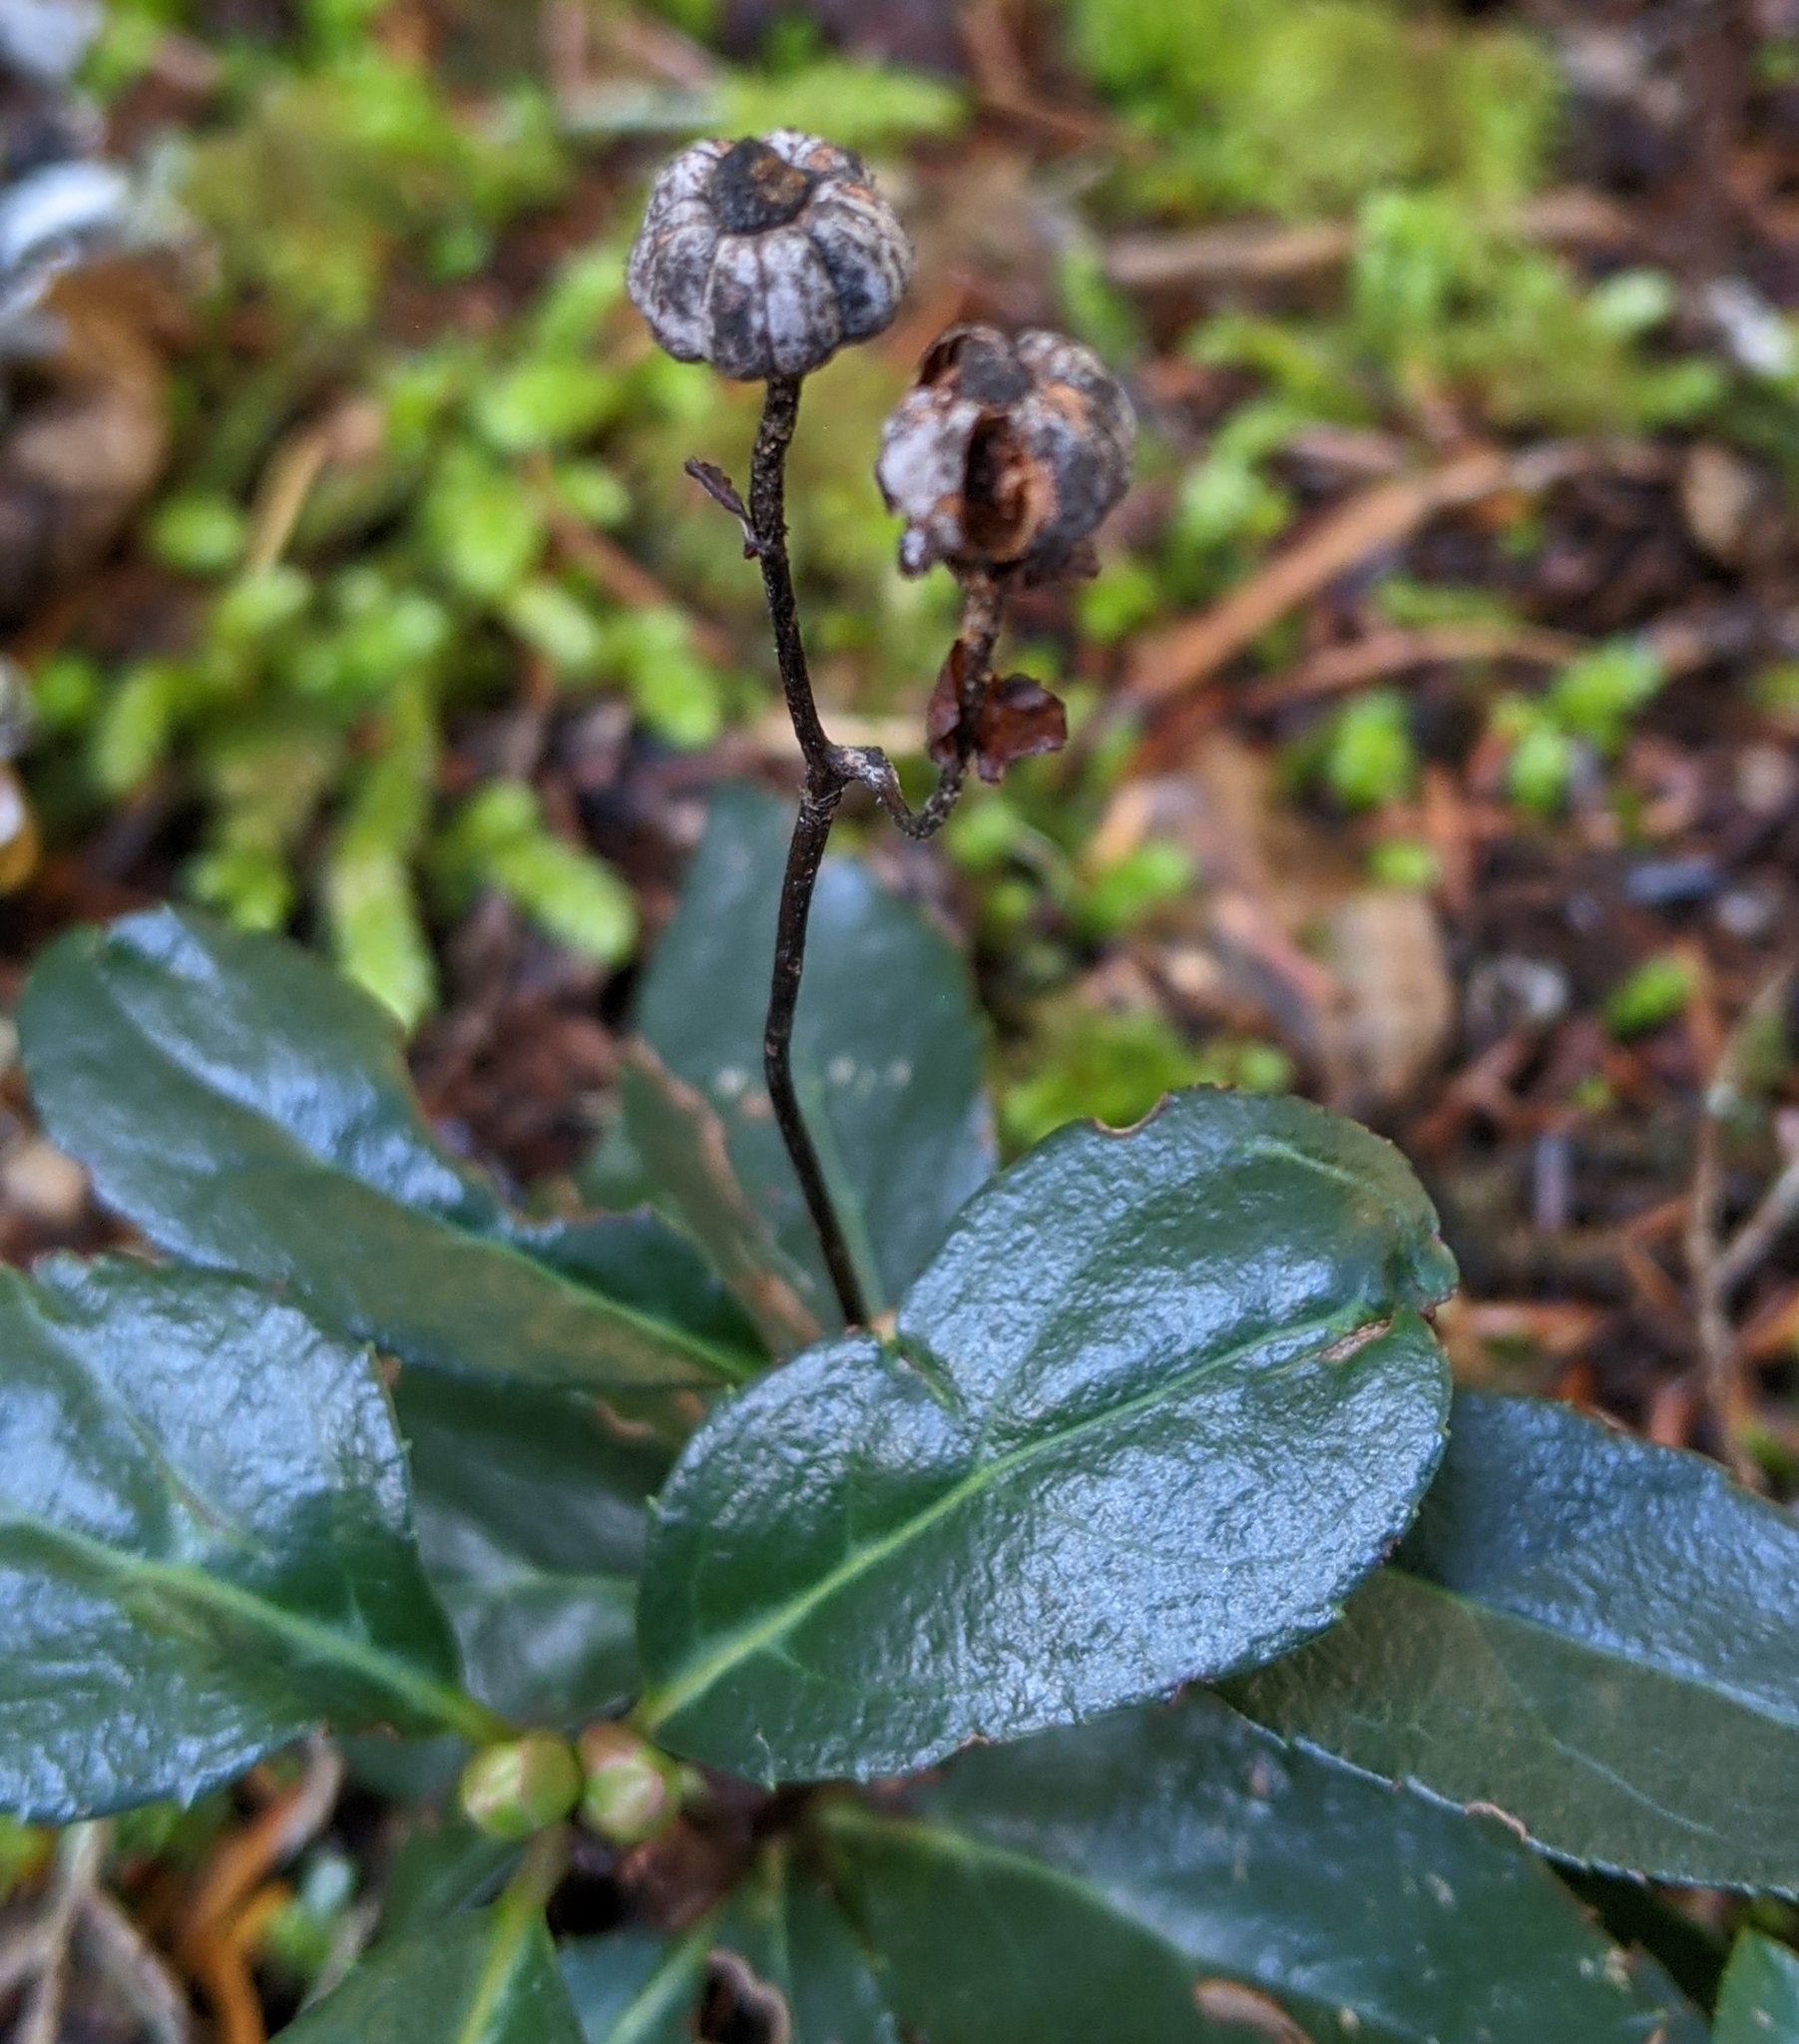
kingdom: Plantae
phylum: Tracheophyta
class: Magnoliopsida
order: Ericales
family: Ericaceae
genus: Chimaphila
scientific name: Chimaphila menziesii
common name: Menzies' pipsissewa
